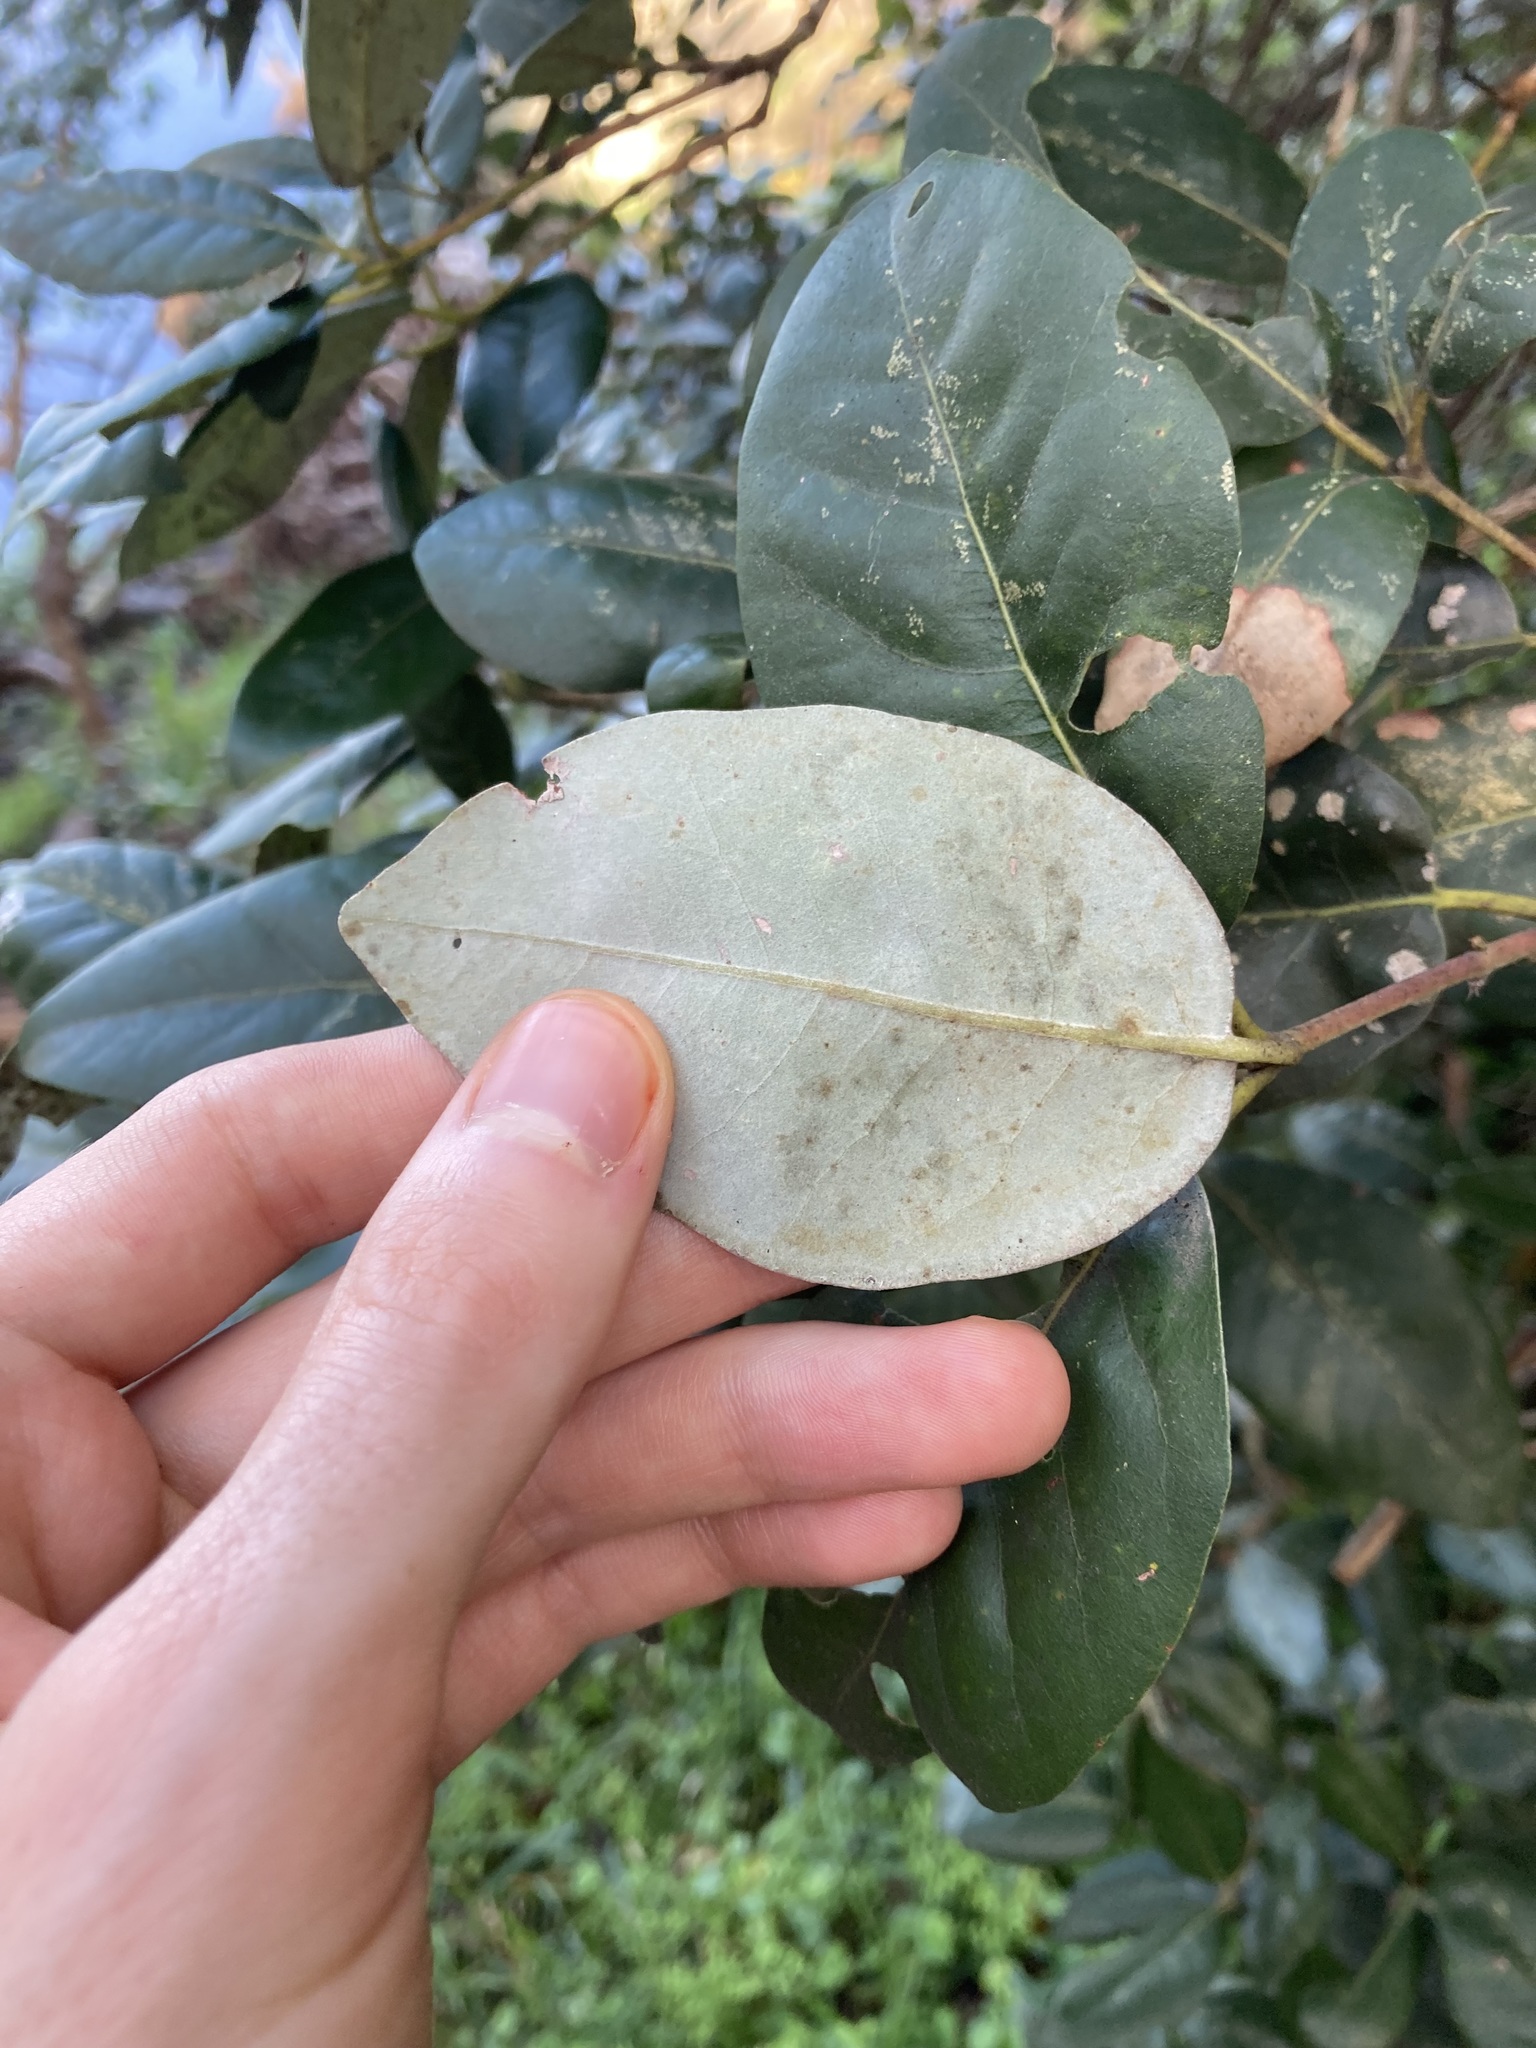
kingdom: Plantae
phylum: Tracheophyta
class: Magnoliopsida
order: Myrtales
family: Myrtaceae
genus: Syncarpia
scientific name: Syncarpia glomulifera
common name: Turpentine tree
